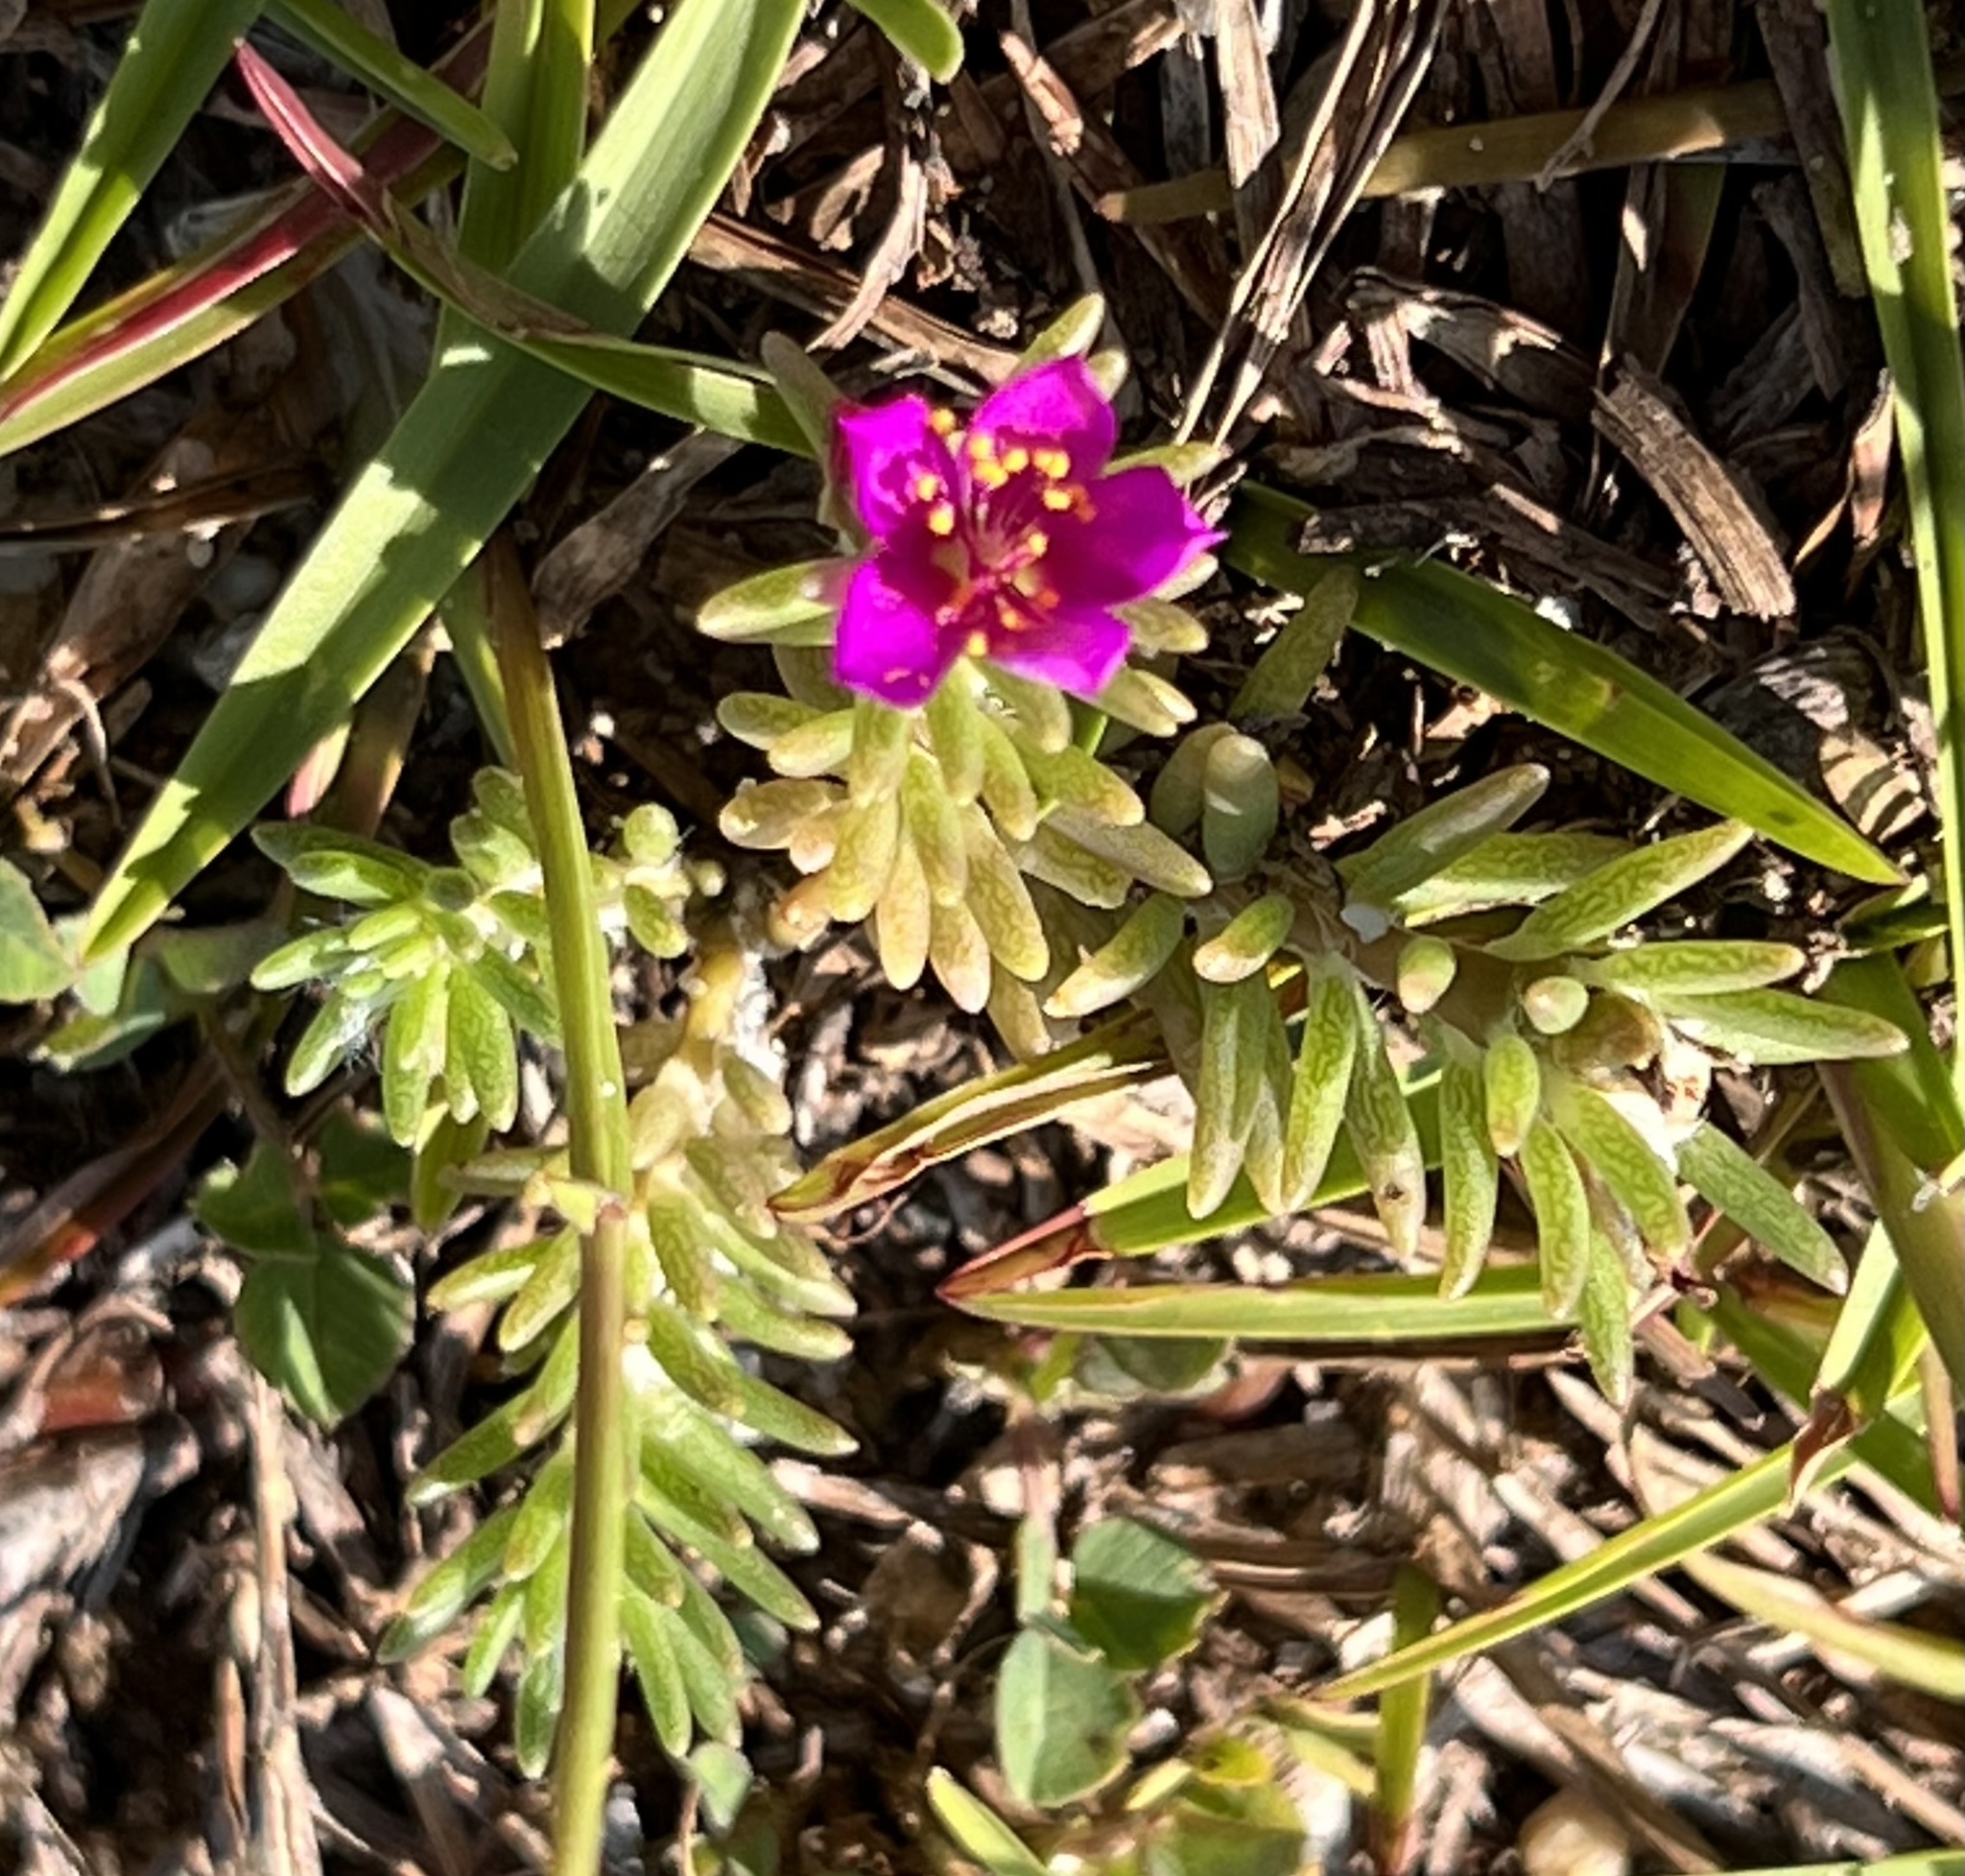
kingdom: Plantae
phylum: Tracheophyta
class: Magnoliopsida
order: Caryophyllales
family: Portulacaceae
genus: Portulaca
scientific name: Portulaca pilosa
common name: Kiss me quick
